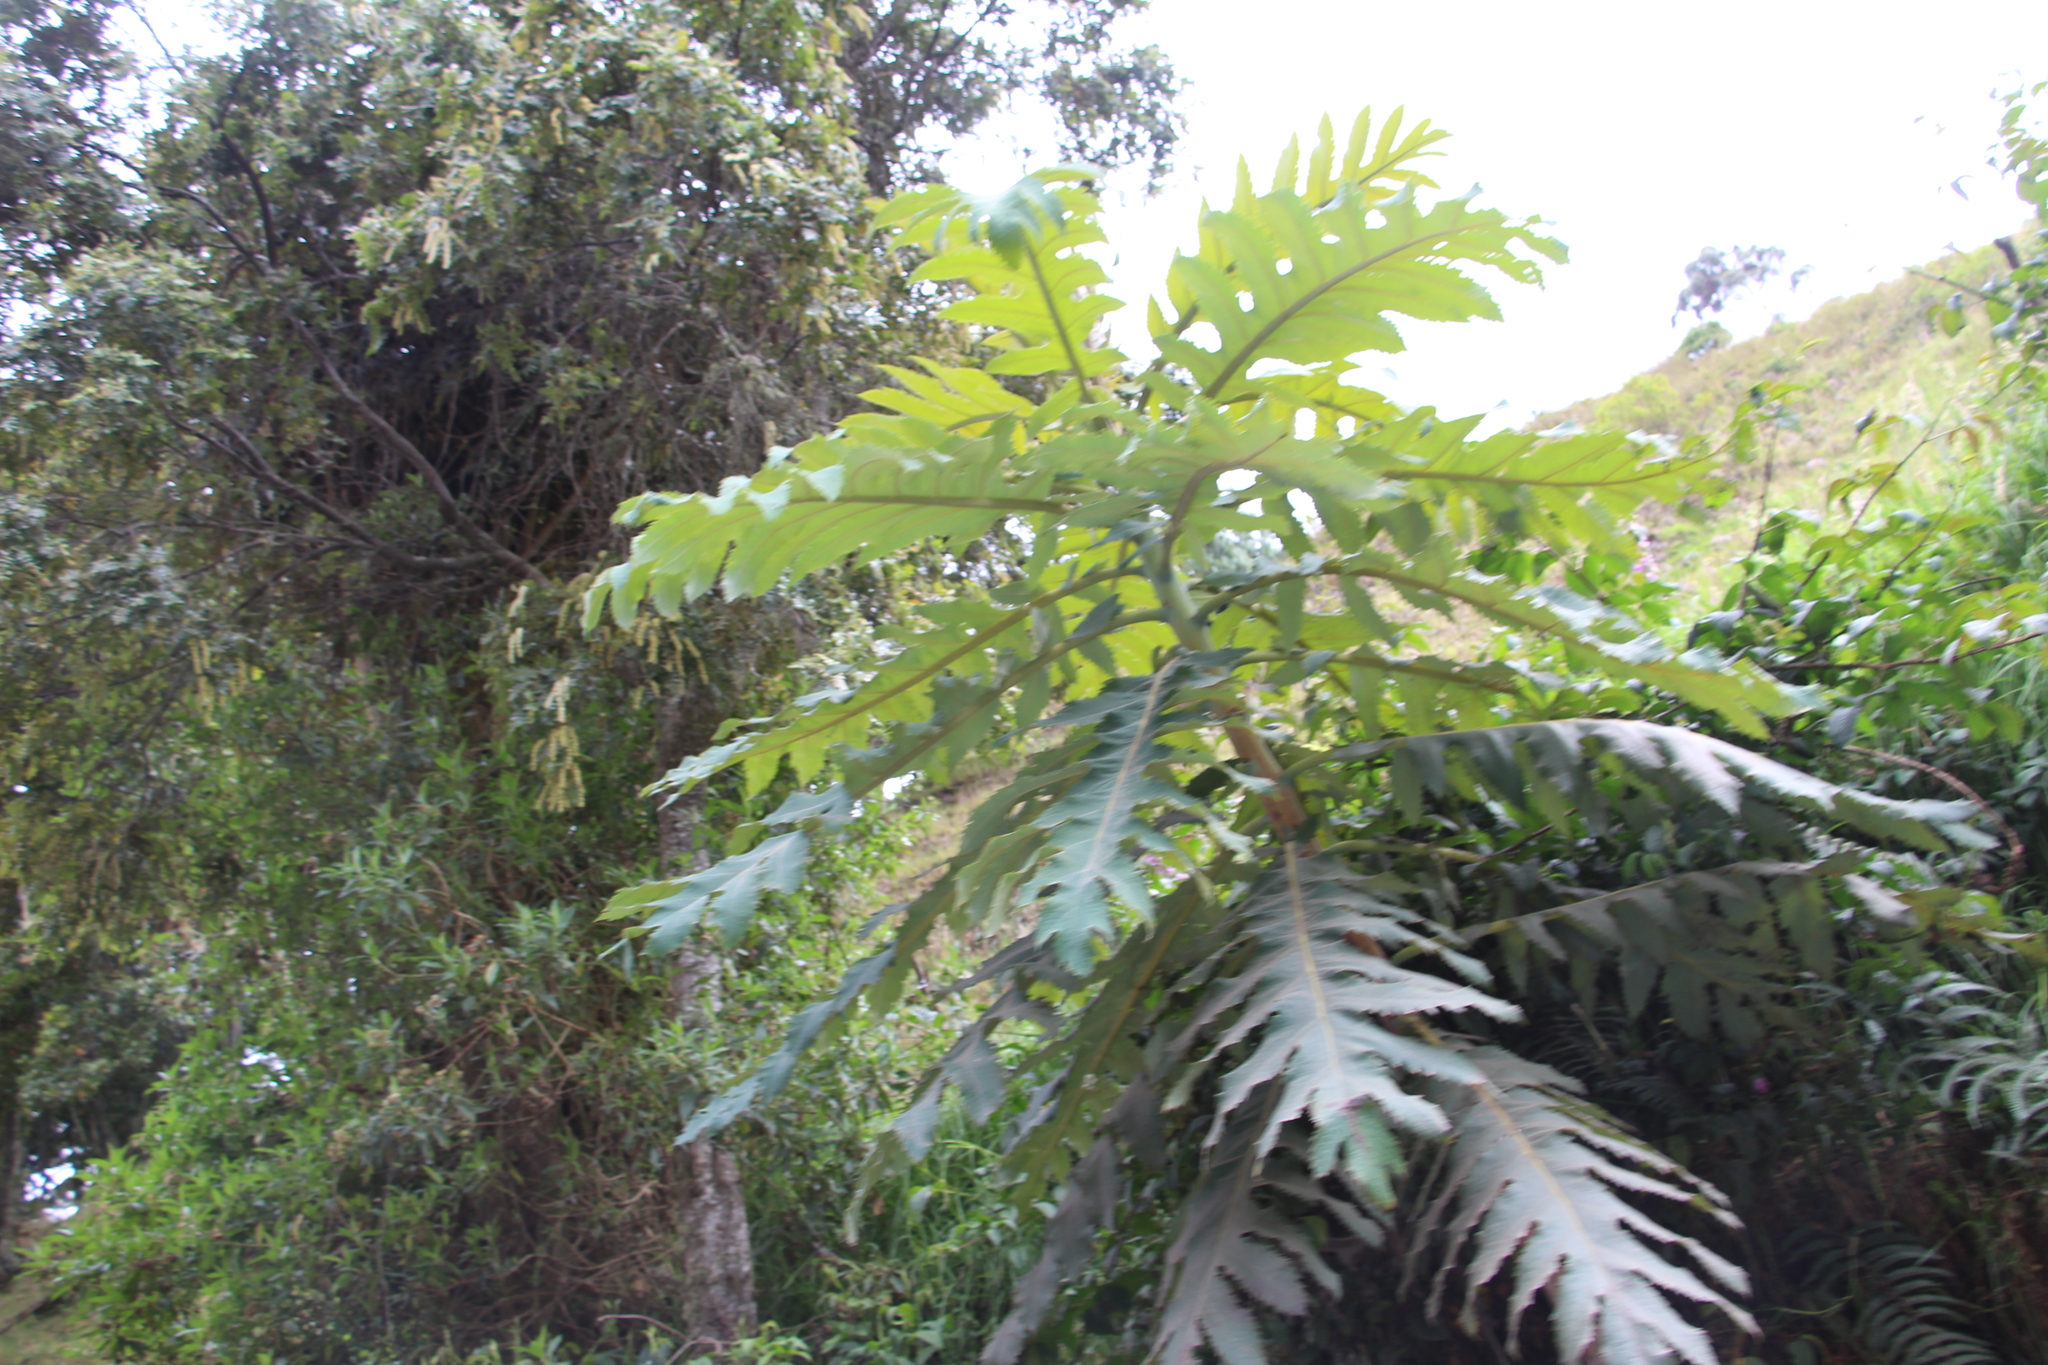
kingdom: Plantae
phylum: Tracheophyta
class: Magnoliopsida
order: Ranunculales
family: Papaveraceae
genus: Bocconia
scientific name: Bocconia frutescens
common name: Tree poppy
